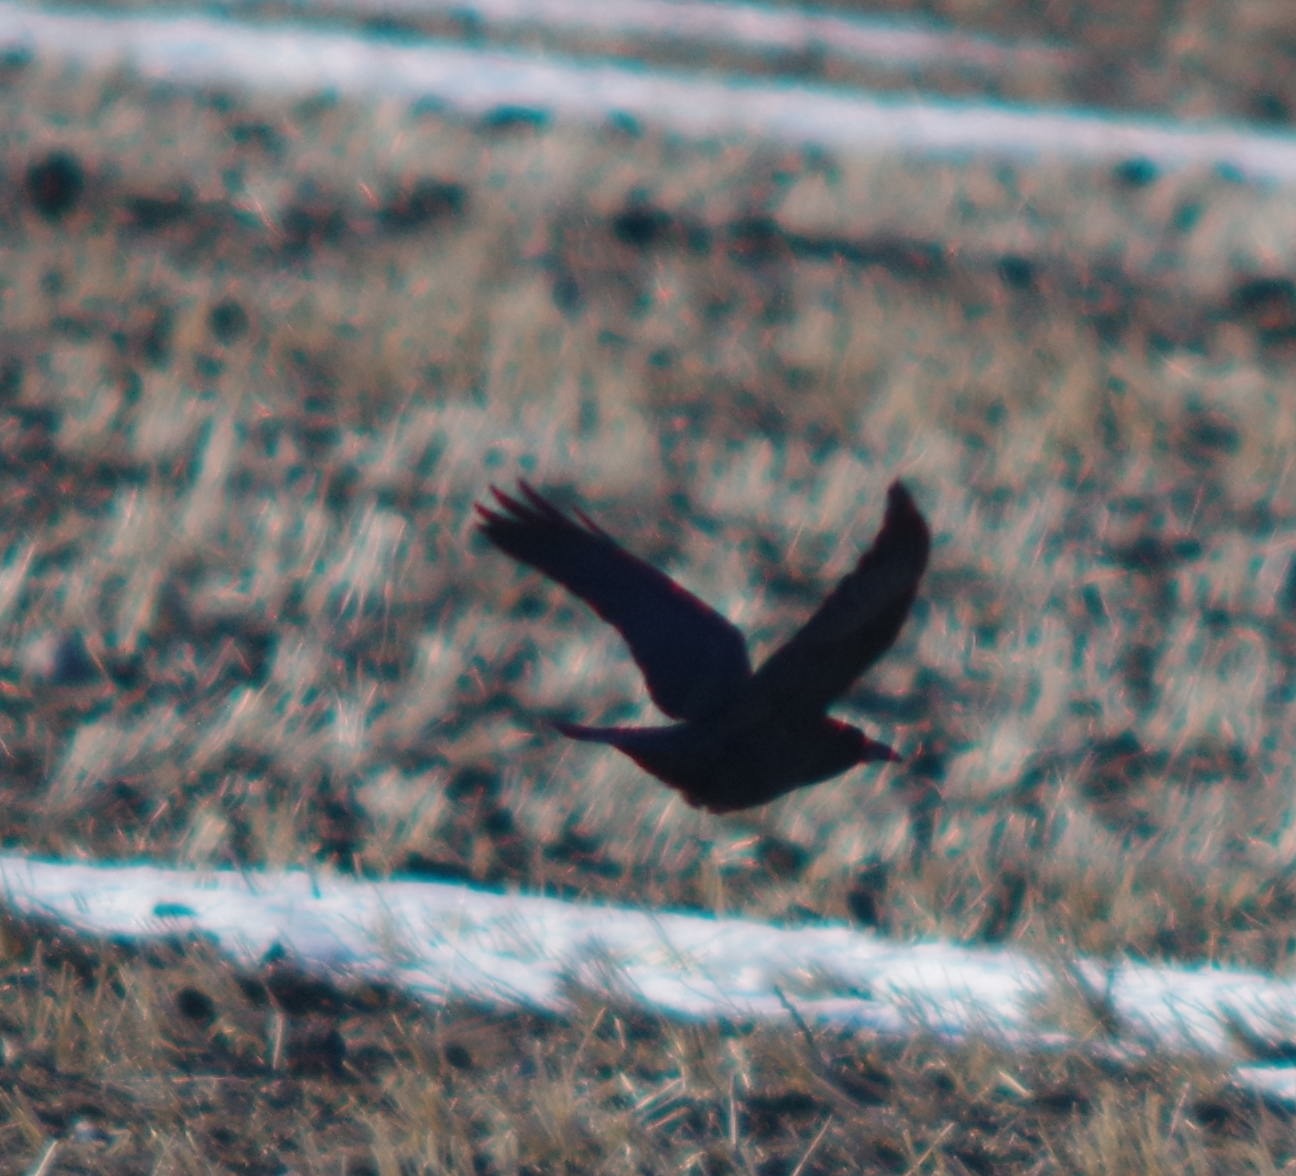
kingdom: Animalia
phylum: Chordata
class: Aves
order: Passeriformes
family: Corvidae
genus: Corvus
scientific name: Corvus corax
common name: Common raven
